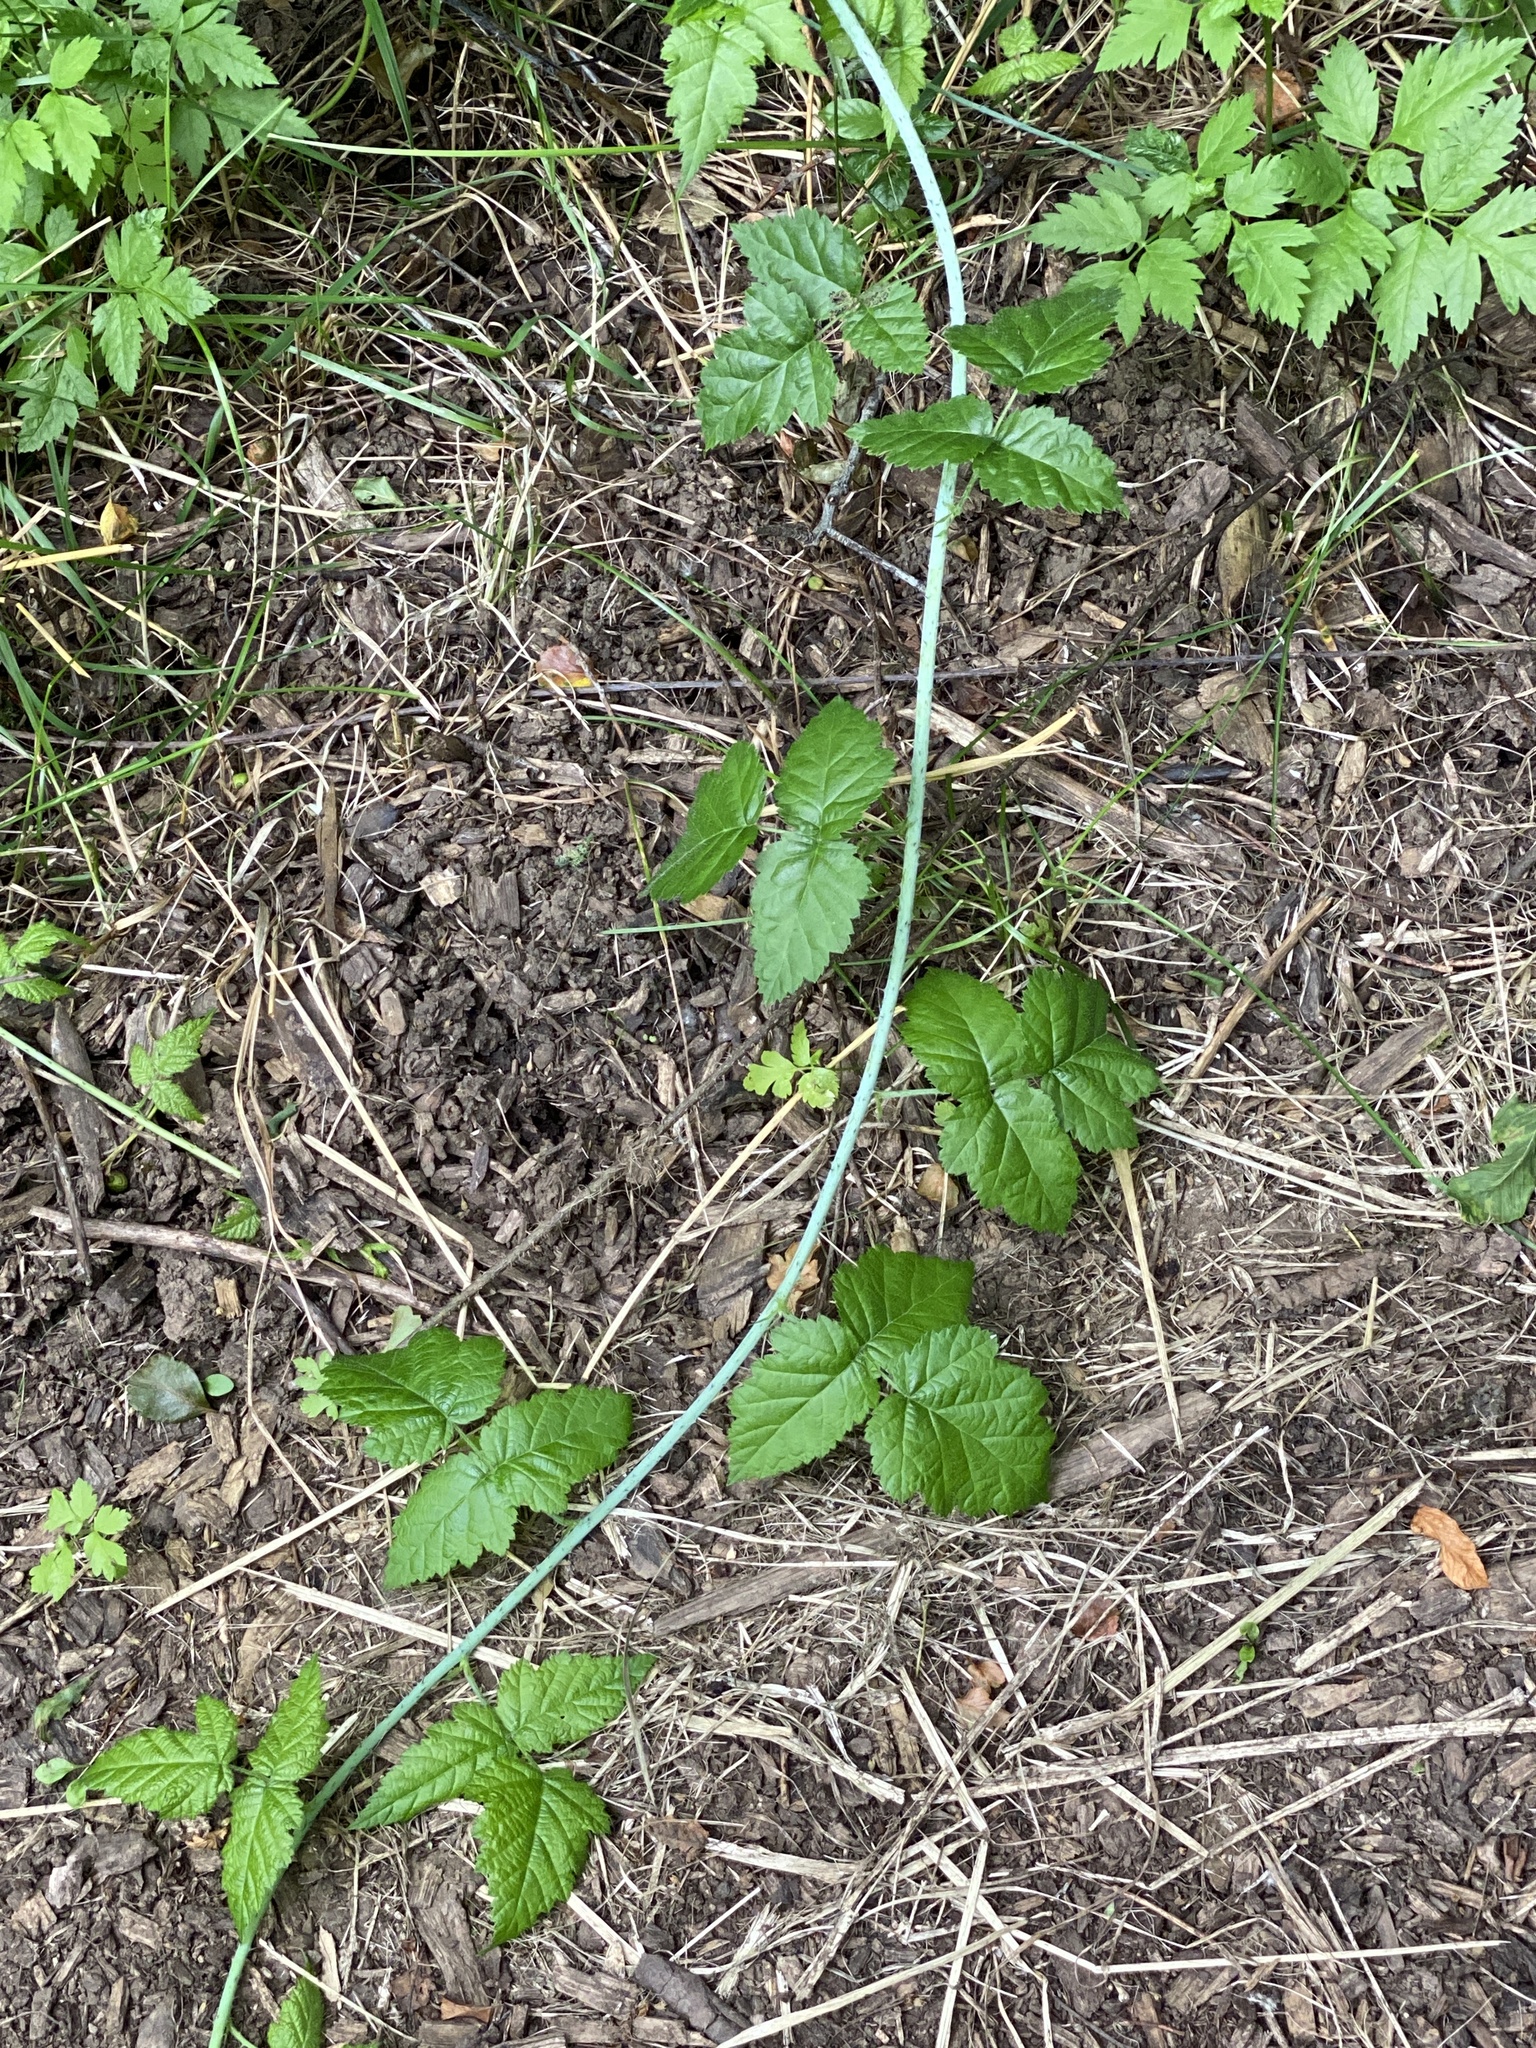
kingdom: Plantae
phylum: Tracheophyta
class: Magnoliopsida
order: Rosales
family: Rosaceae
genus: Rubus
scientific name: Rubus ursinus
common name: Pacific blackberry
